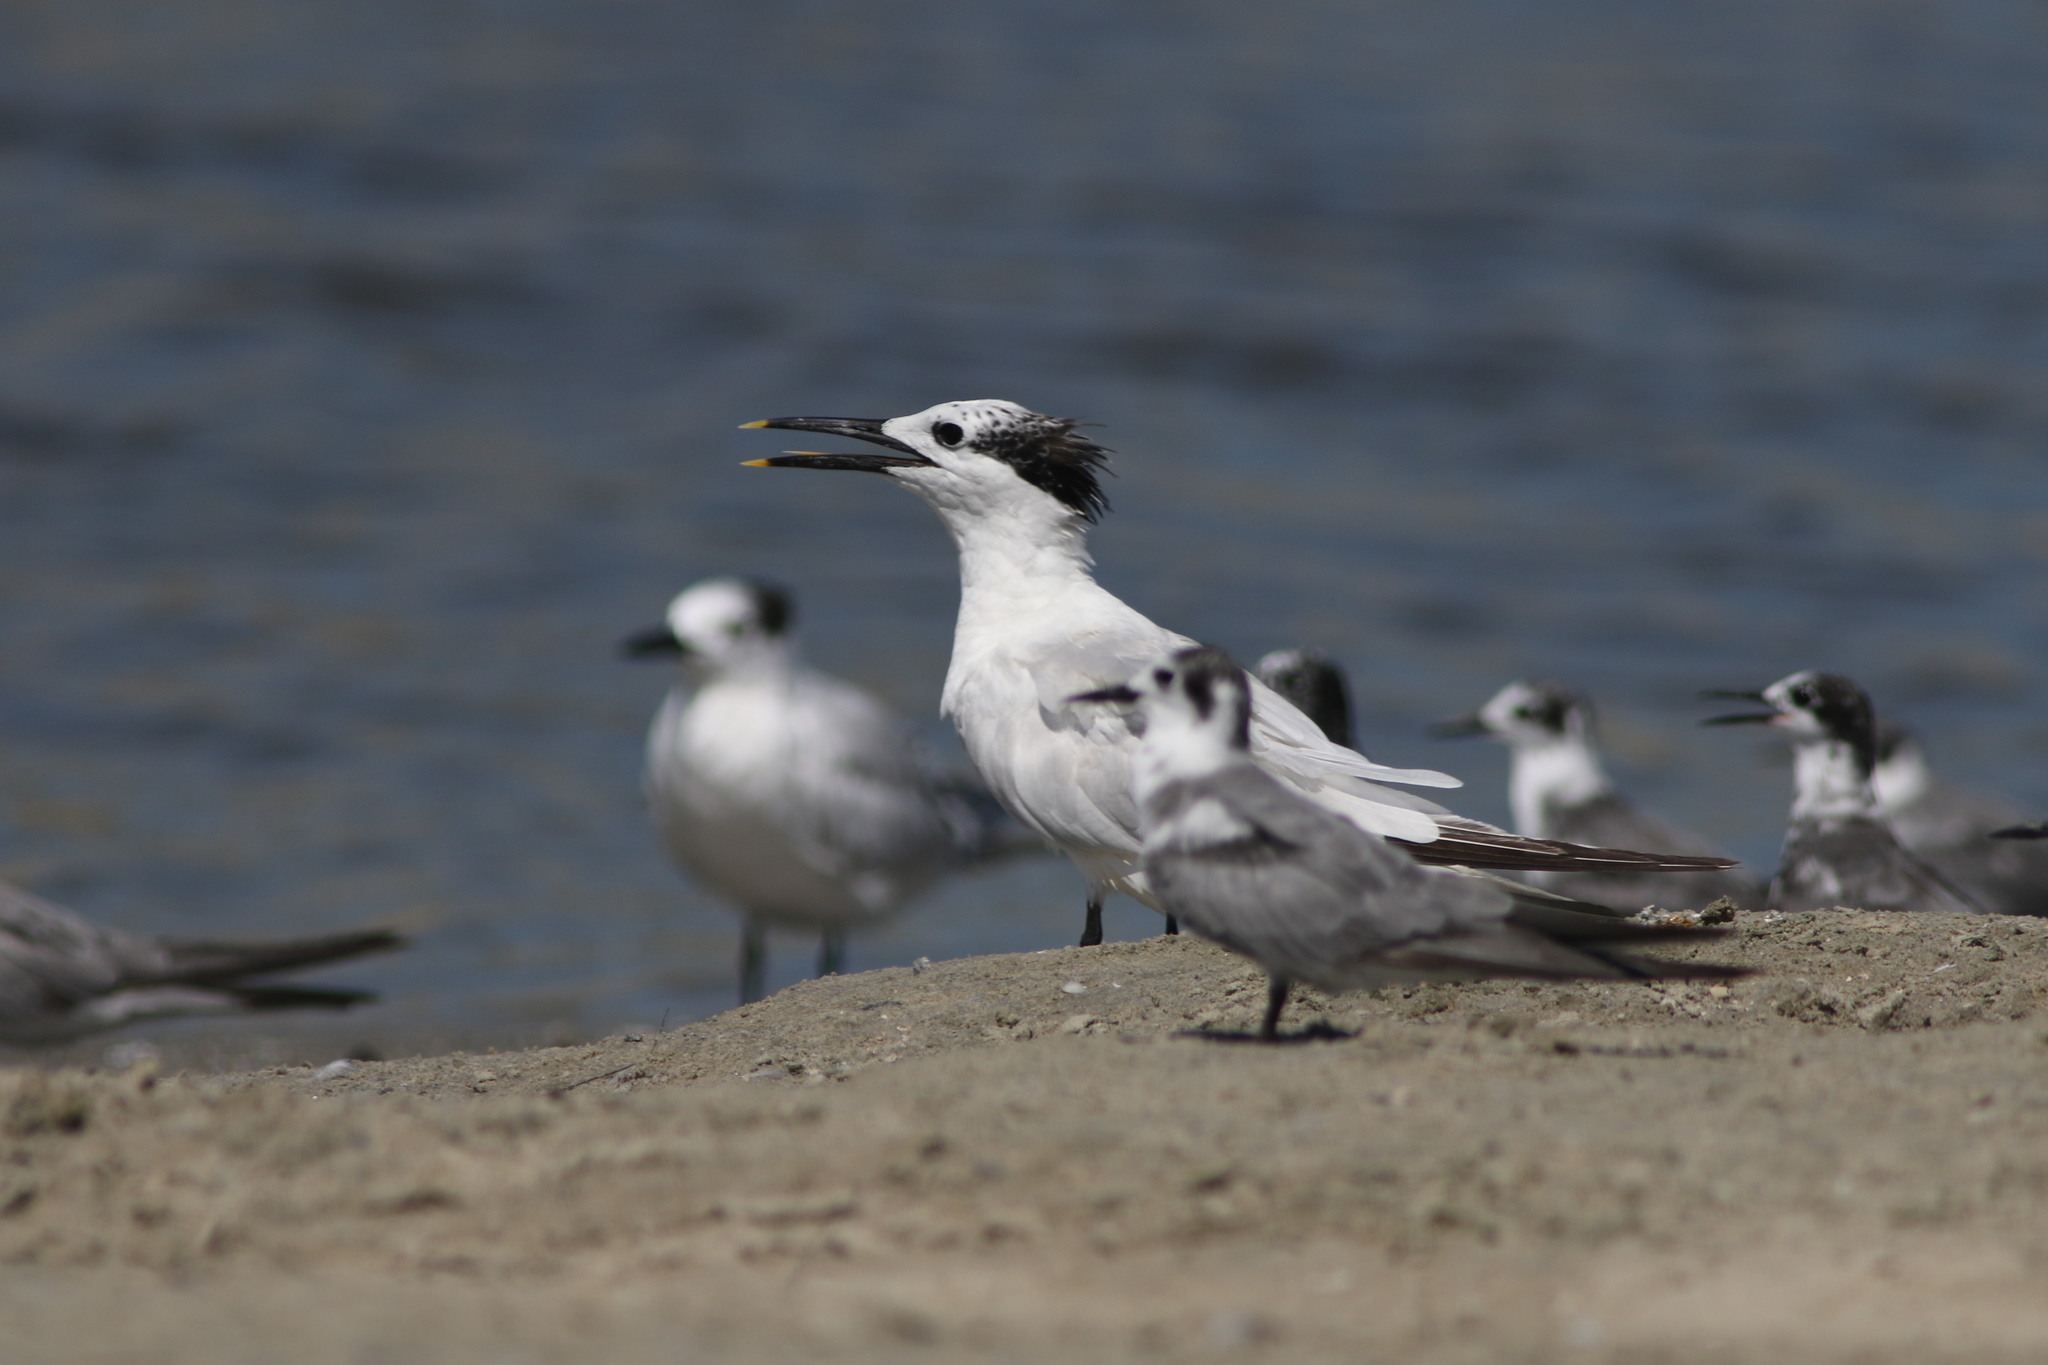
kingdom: Animalia
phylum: Chordata
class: Aves
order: Charadriiformes
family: Laridae
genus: Thalasseus
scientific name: Thalasseus sandvicensis
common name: Sandwich tern
